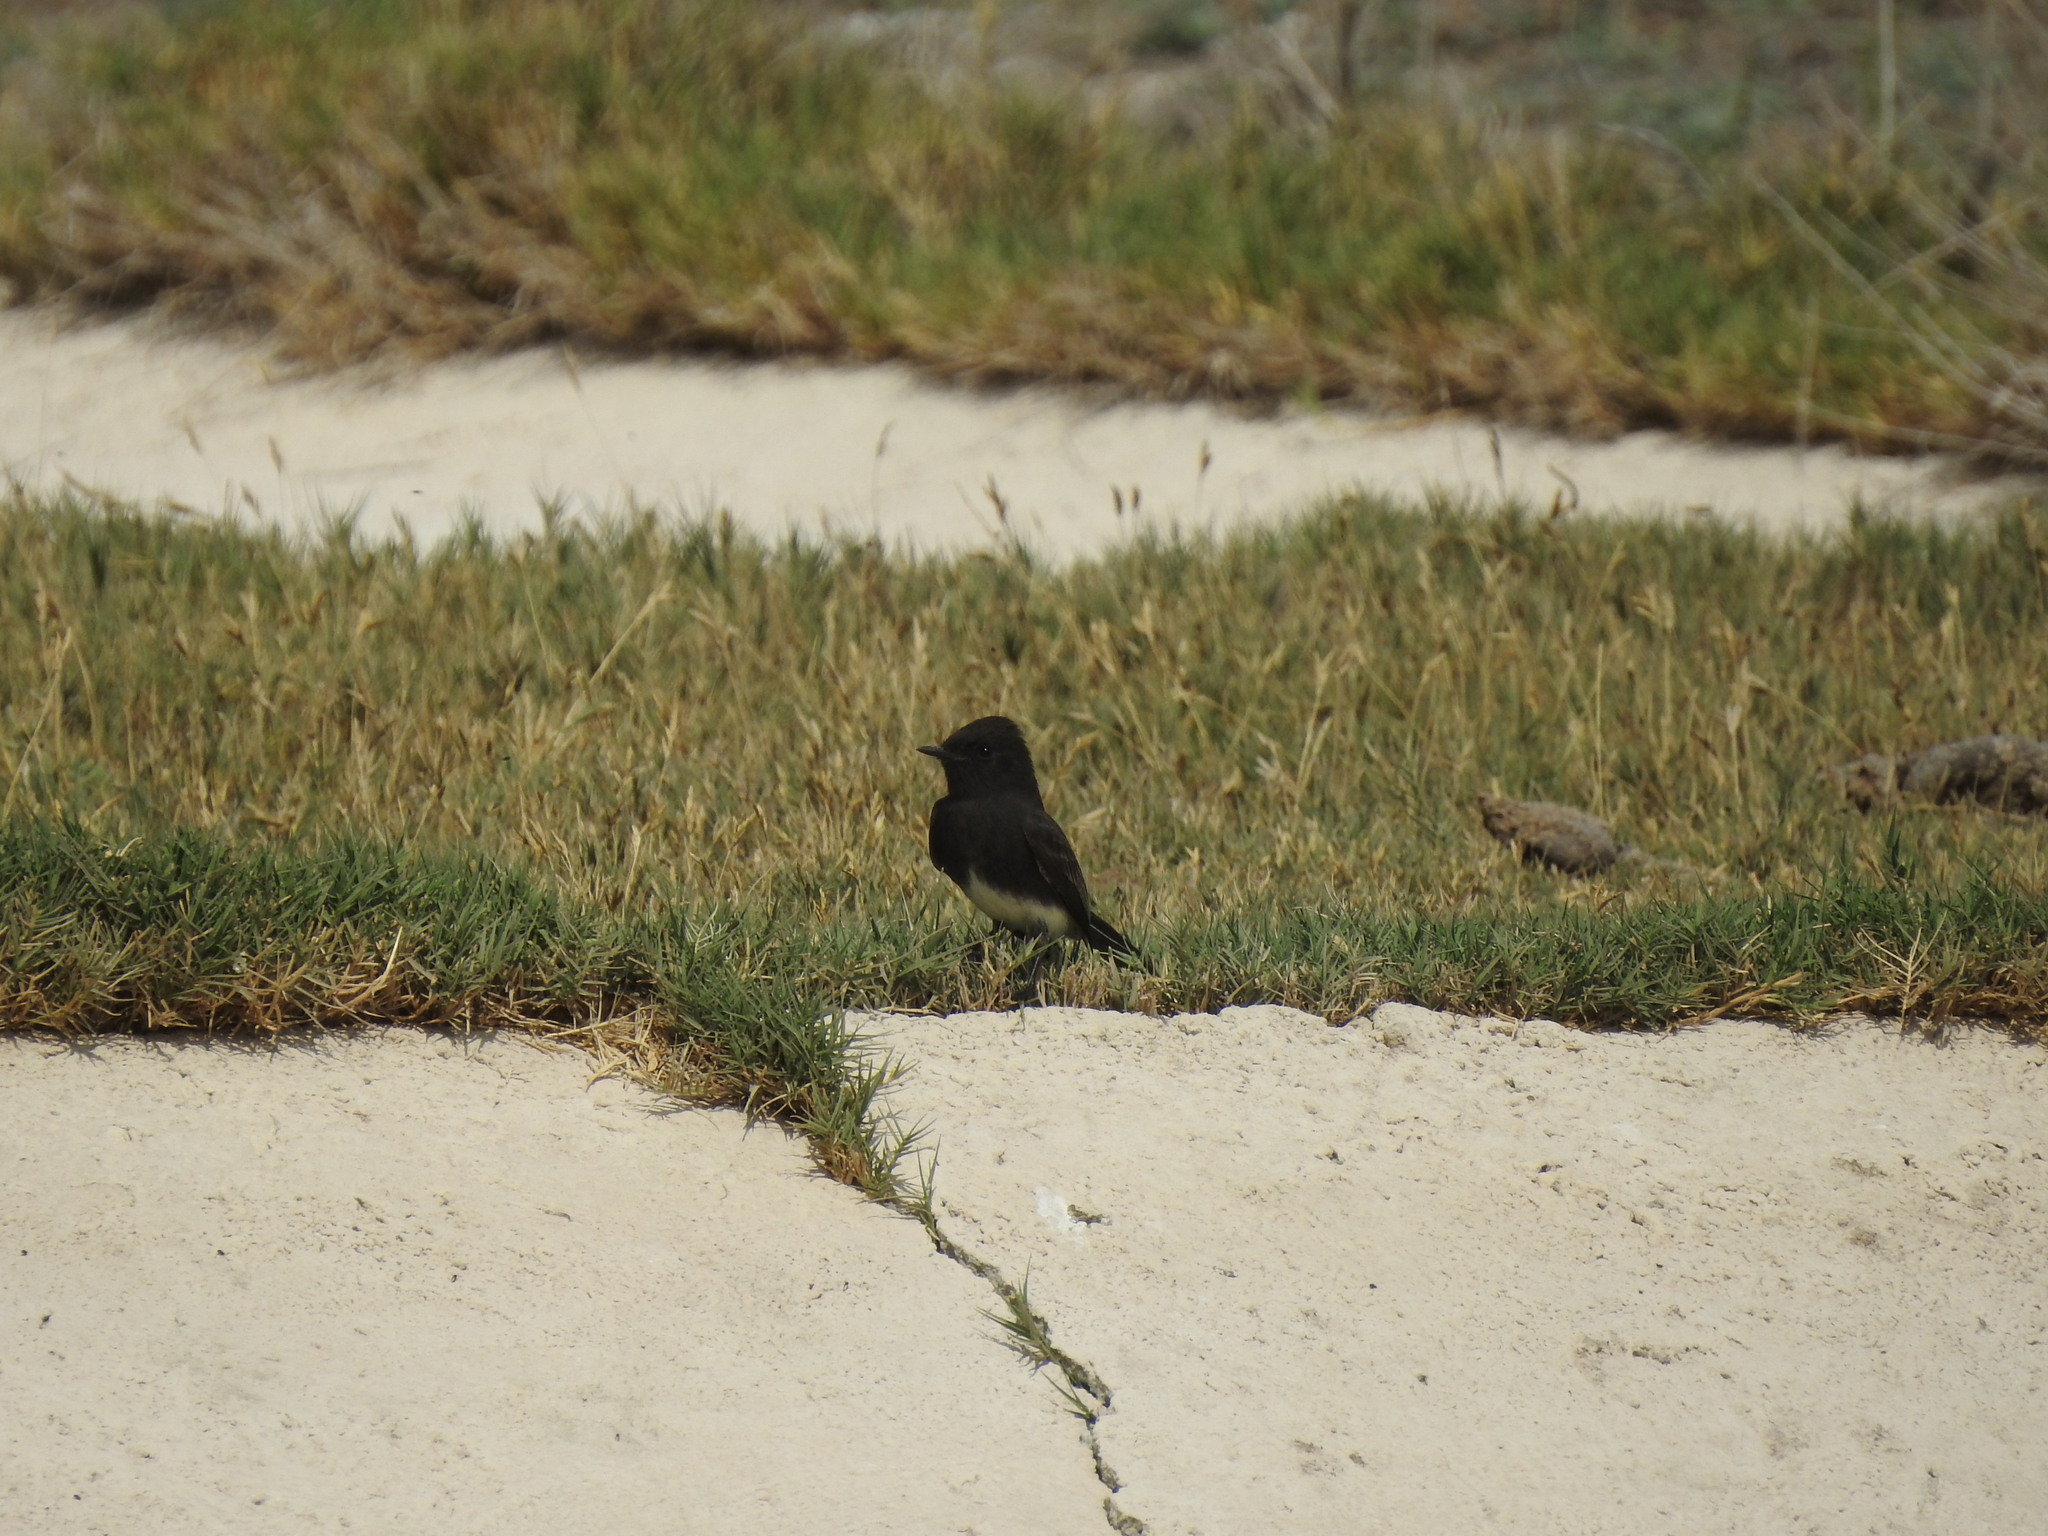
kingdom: Animalia
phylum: Chordata
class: Aves
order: Passeriformes
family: Tyrannidae
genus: Sayornis
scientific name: Sayornis nigricans
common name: Black phoebe
